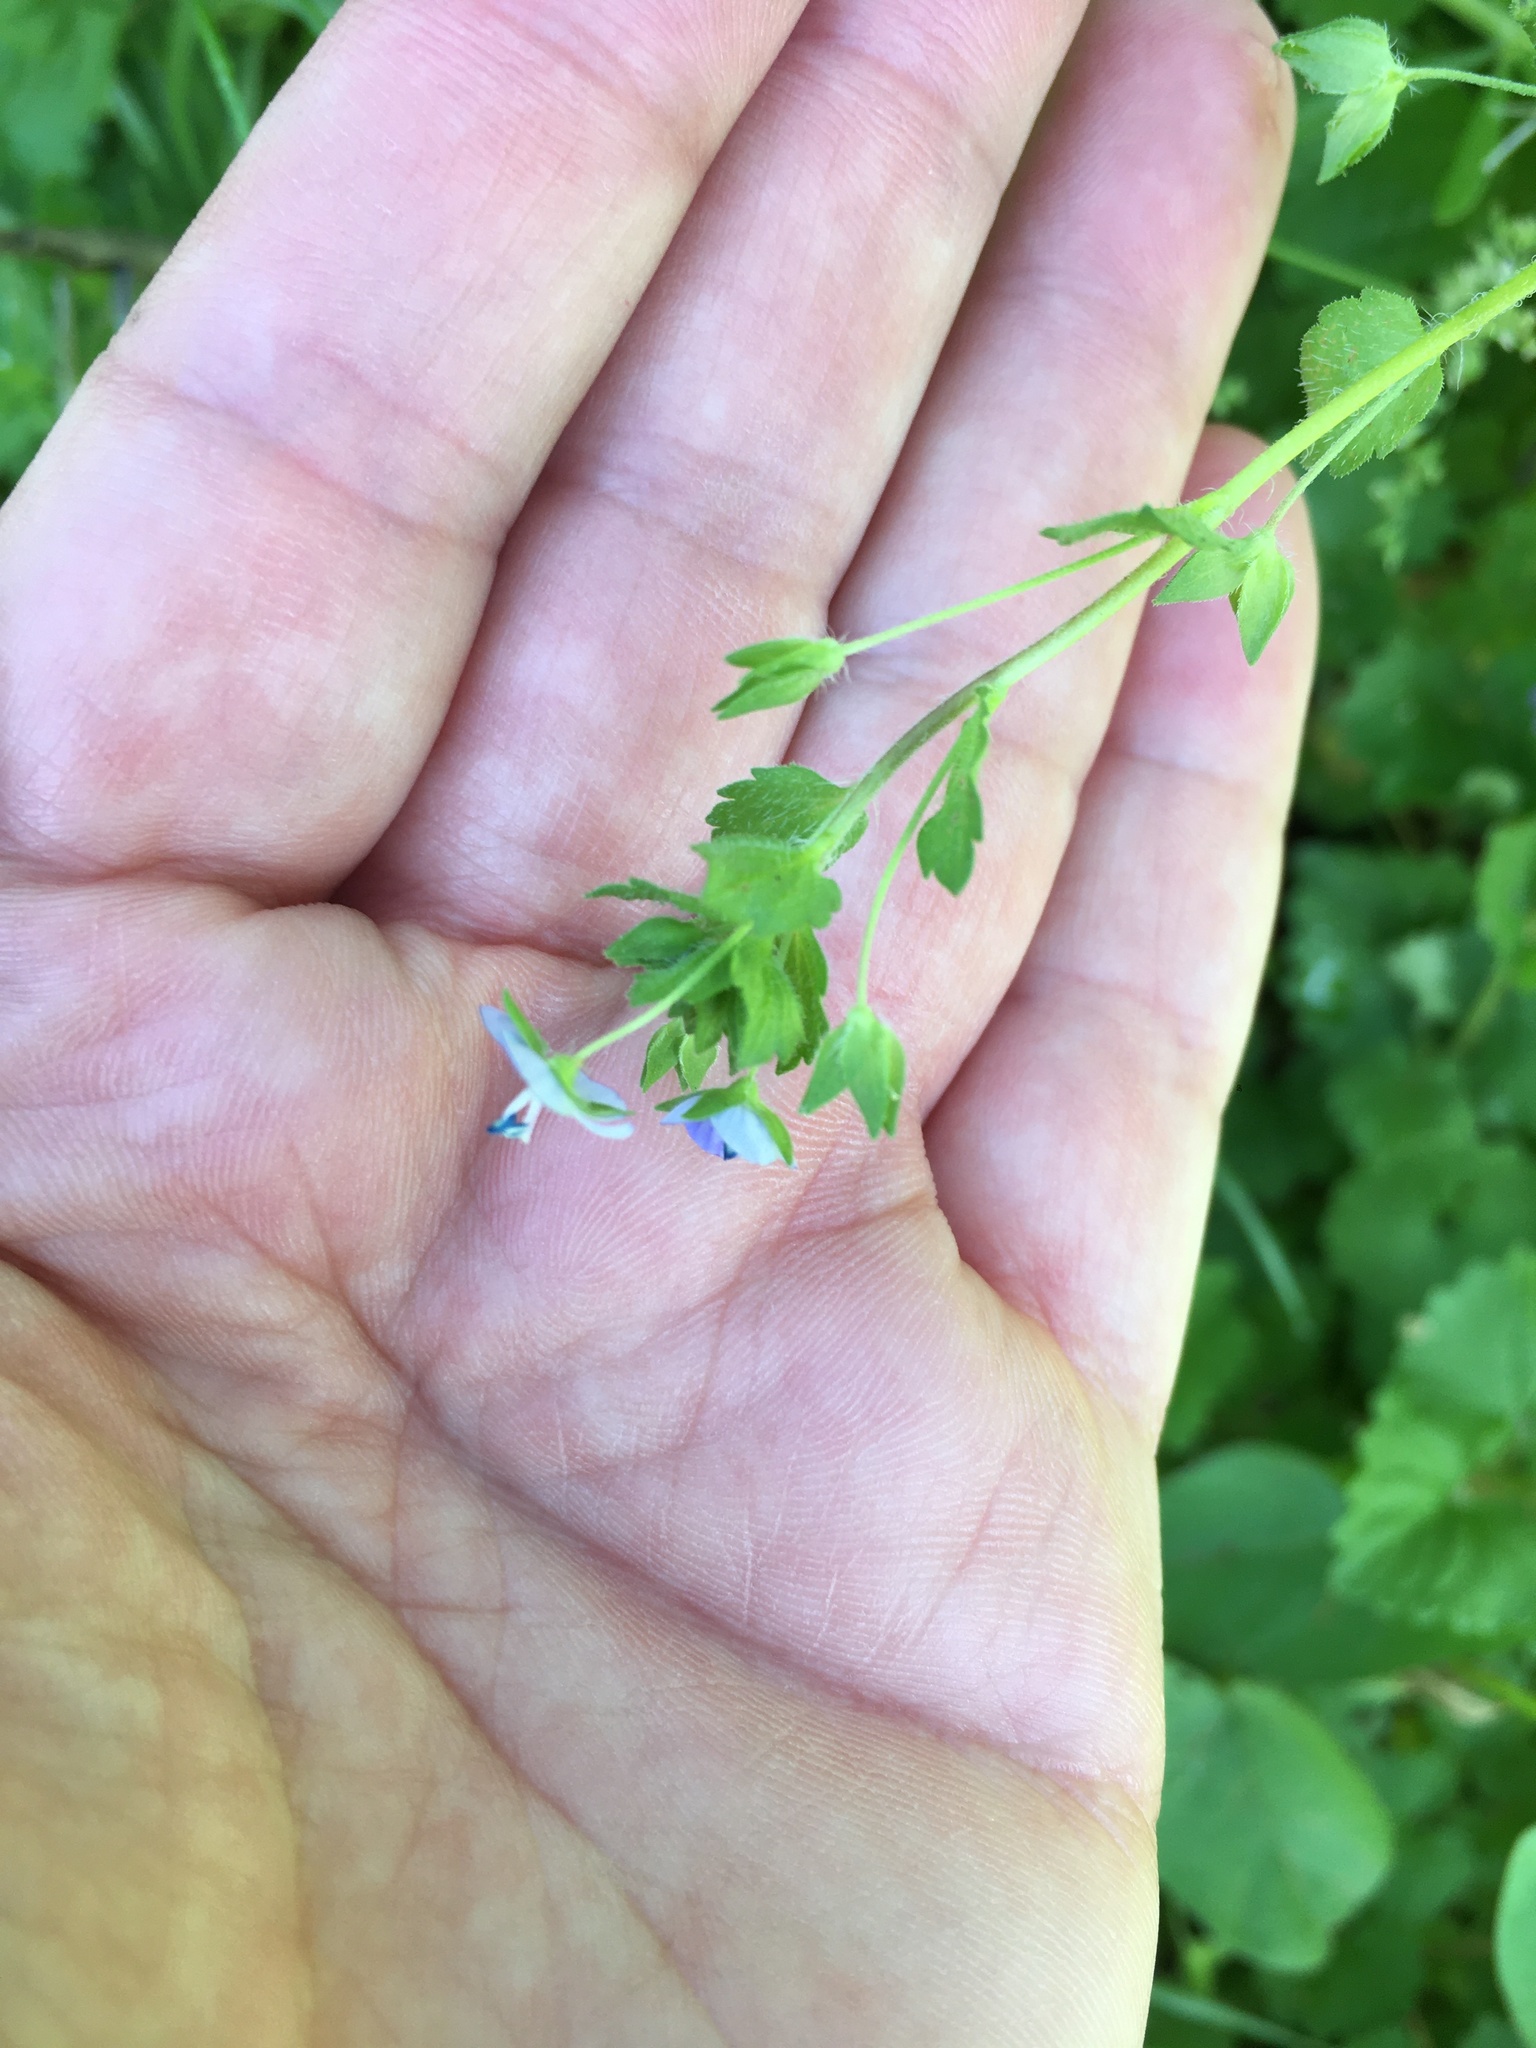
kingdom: Plantae
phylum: Tracheophyta
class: Magnoliopsida
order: Lamiales
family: Plantaginaceae
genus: Veronica
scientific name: Veronica persica
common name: Common field-speedwell
